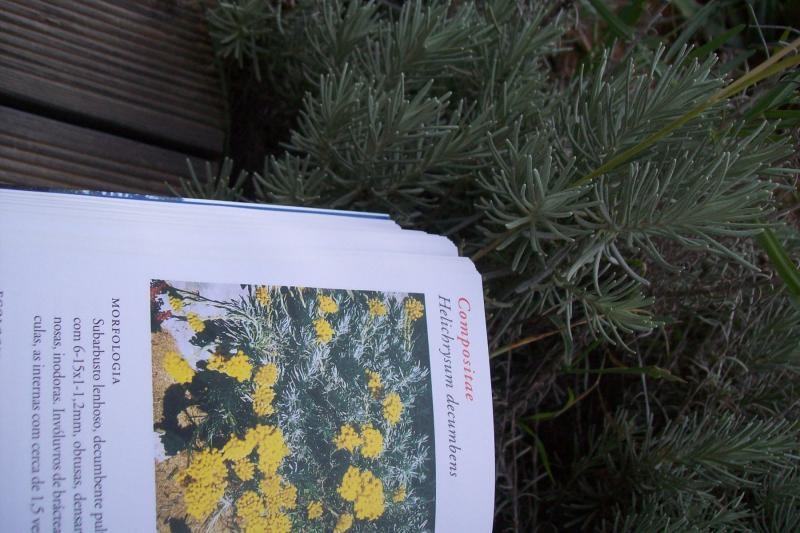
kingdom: Plantae
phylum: Tracheophyta
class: Magnoliopsida
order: Lamiales
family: Lamiaceae
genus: Lavandula
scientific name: Lavandula stoechas
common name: French lavender
